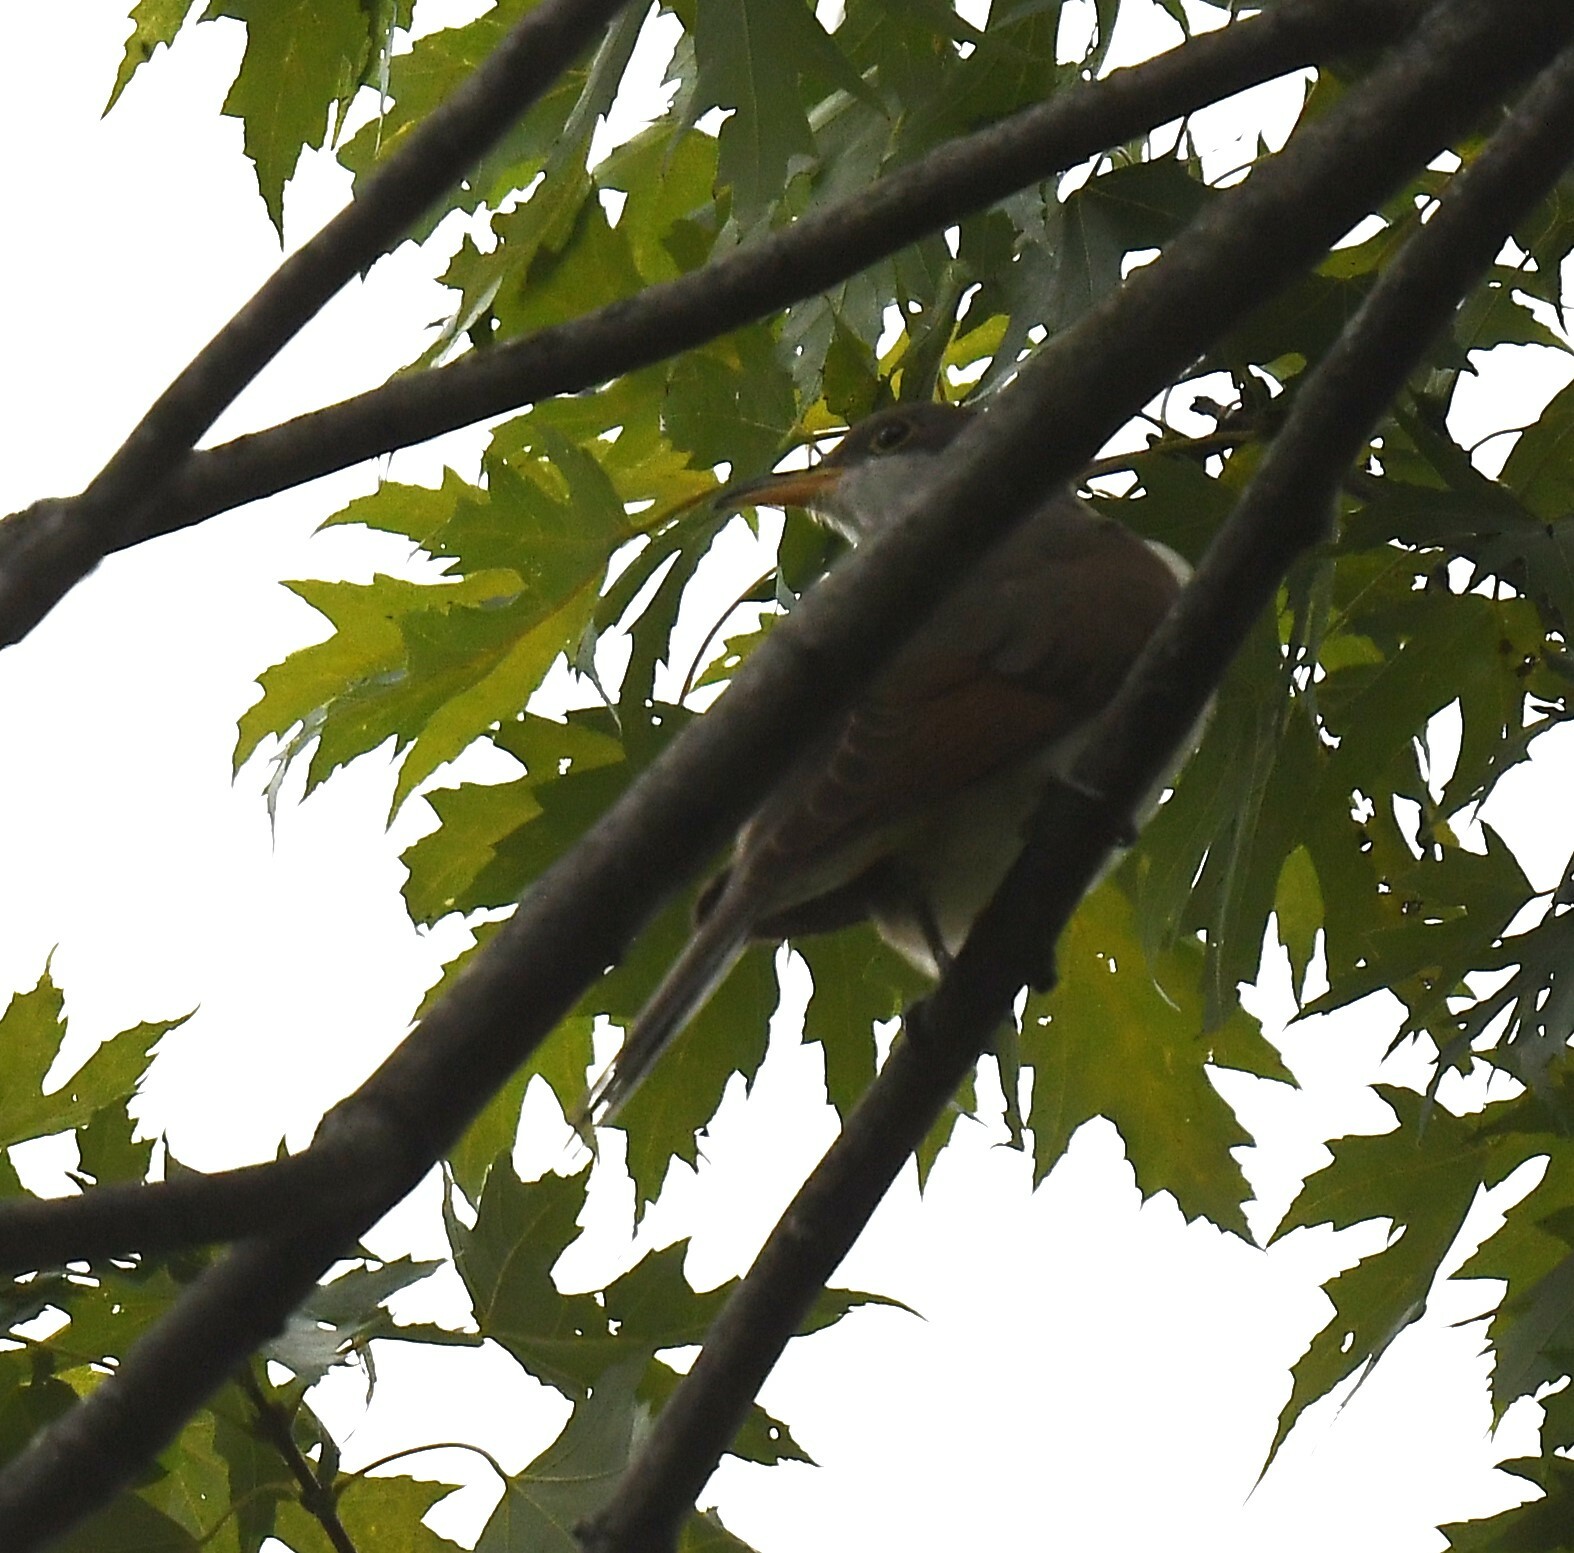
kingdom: Animalia
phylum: Chordata
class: Aves
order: Cuculiformes
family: Cuculidae
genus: Coccyzus
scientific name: Coccyzus americanus
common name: Yellow-billed cuckoo
